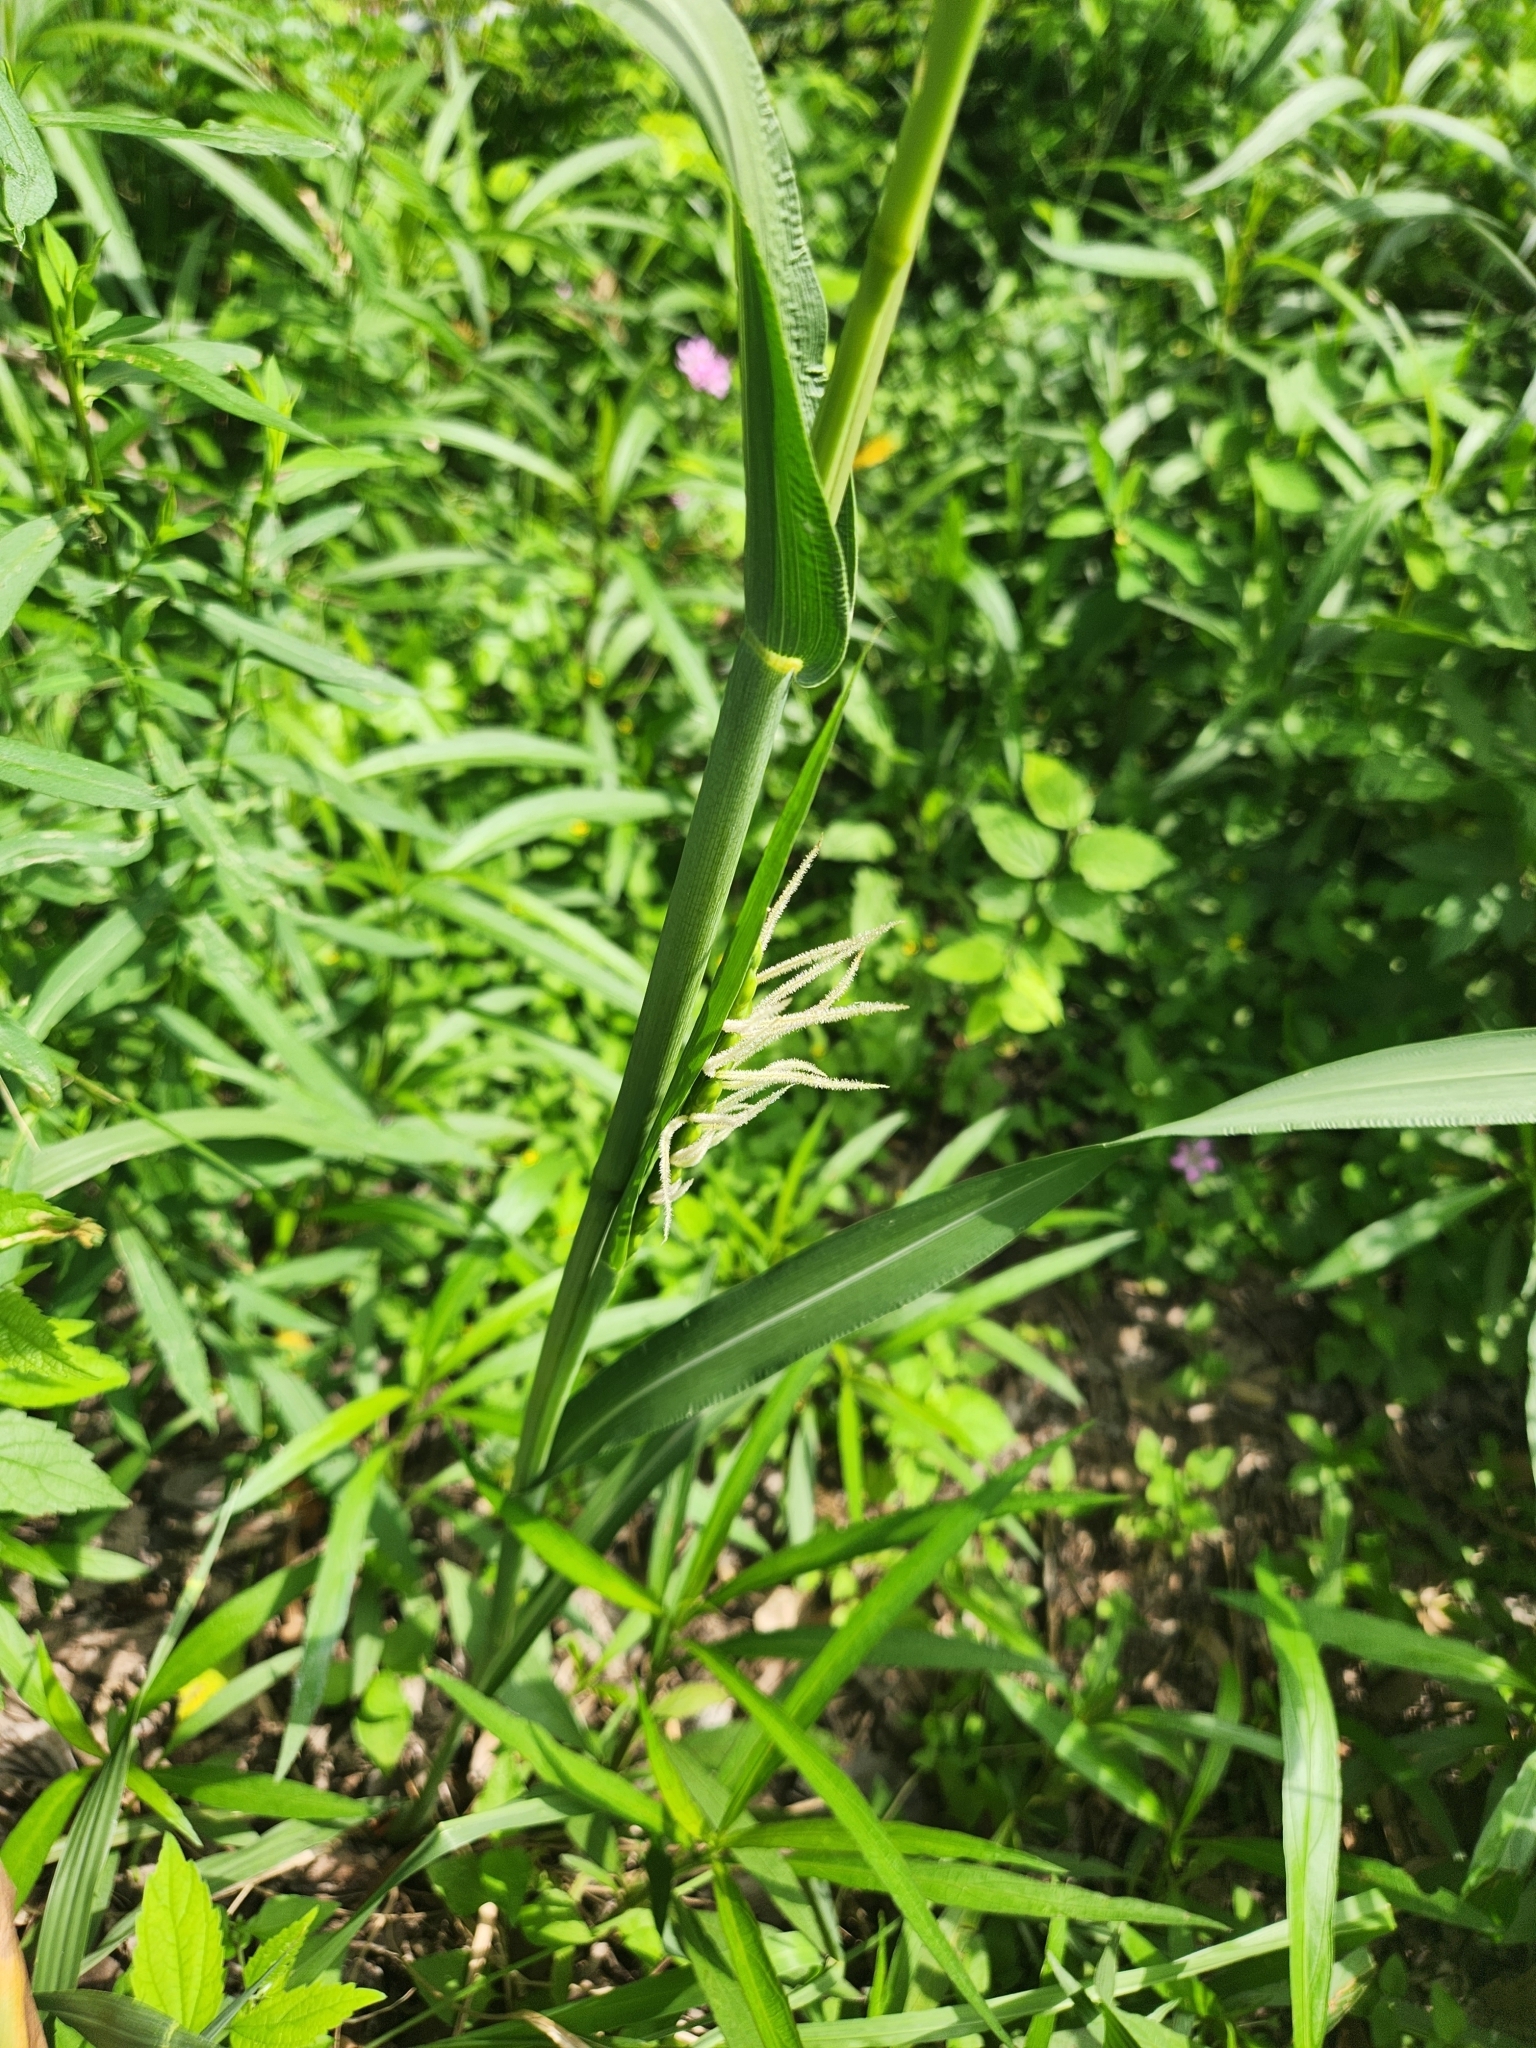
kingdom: Plantae
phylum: Tracheophyta
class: Liliopsida
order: Poales
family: Poaceae
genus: Tripsacum
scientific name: Tripsacum dactyloides
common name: Buffalo-grass
